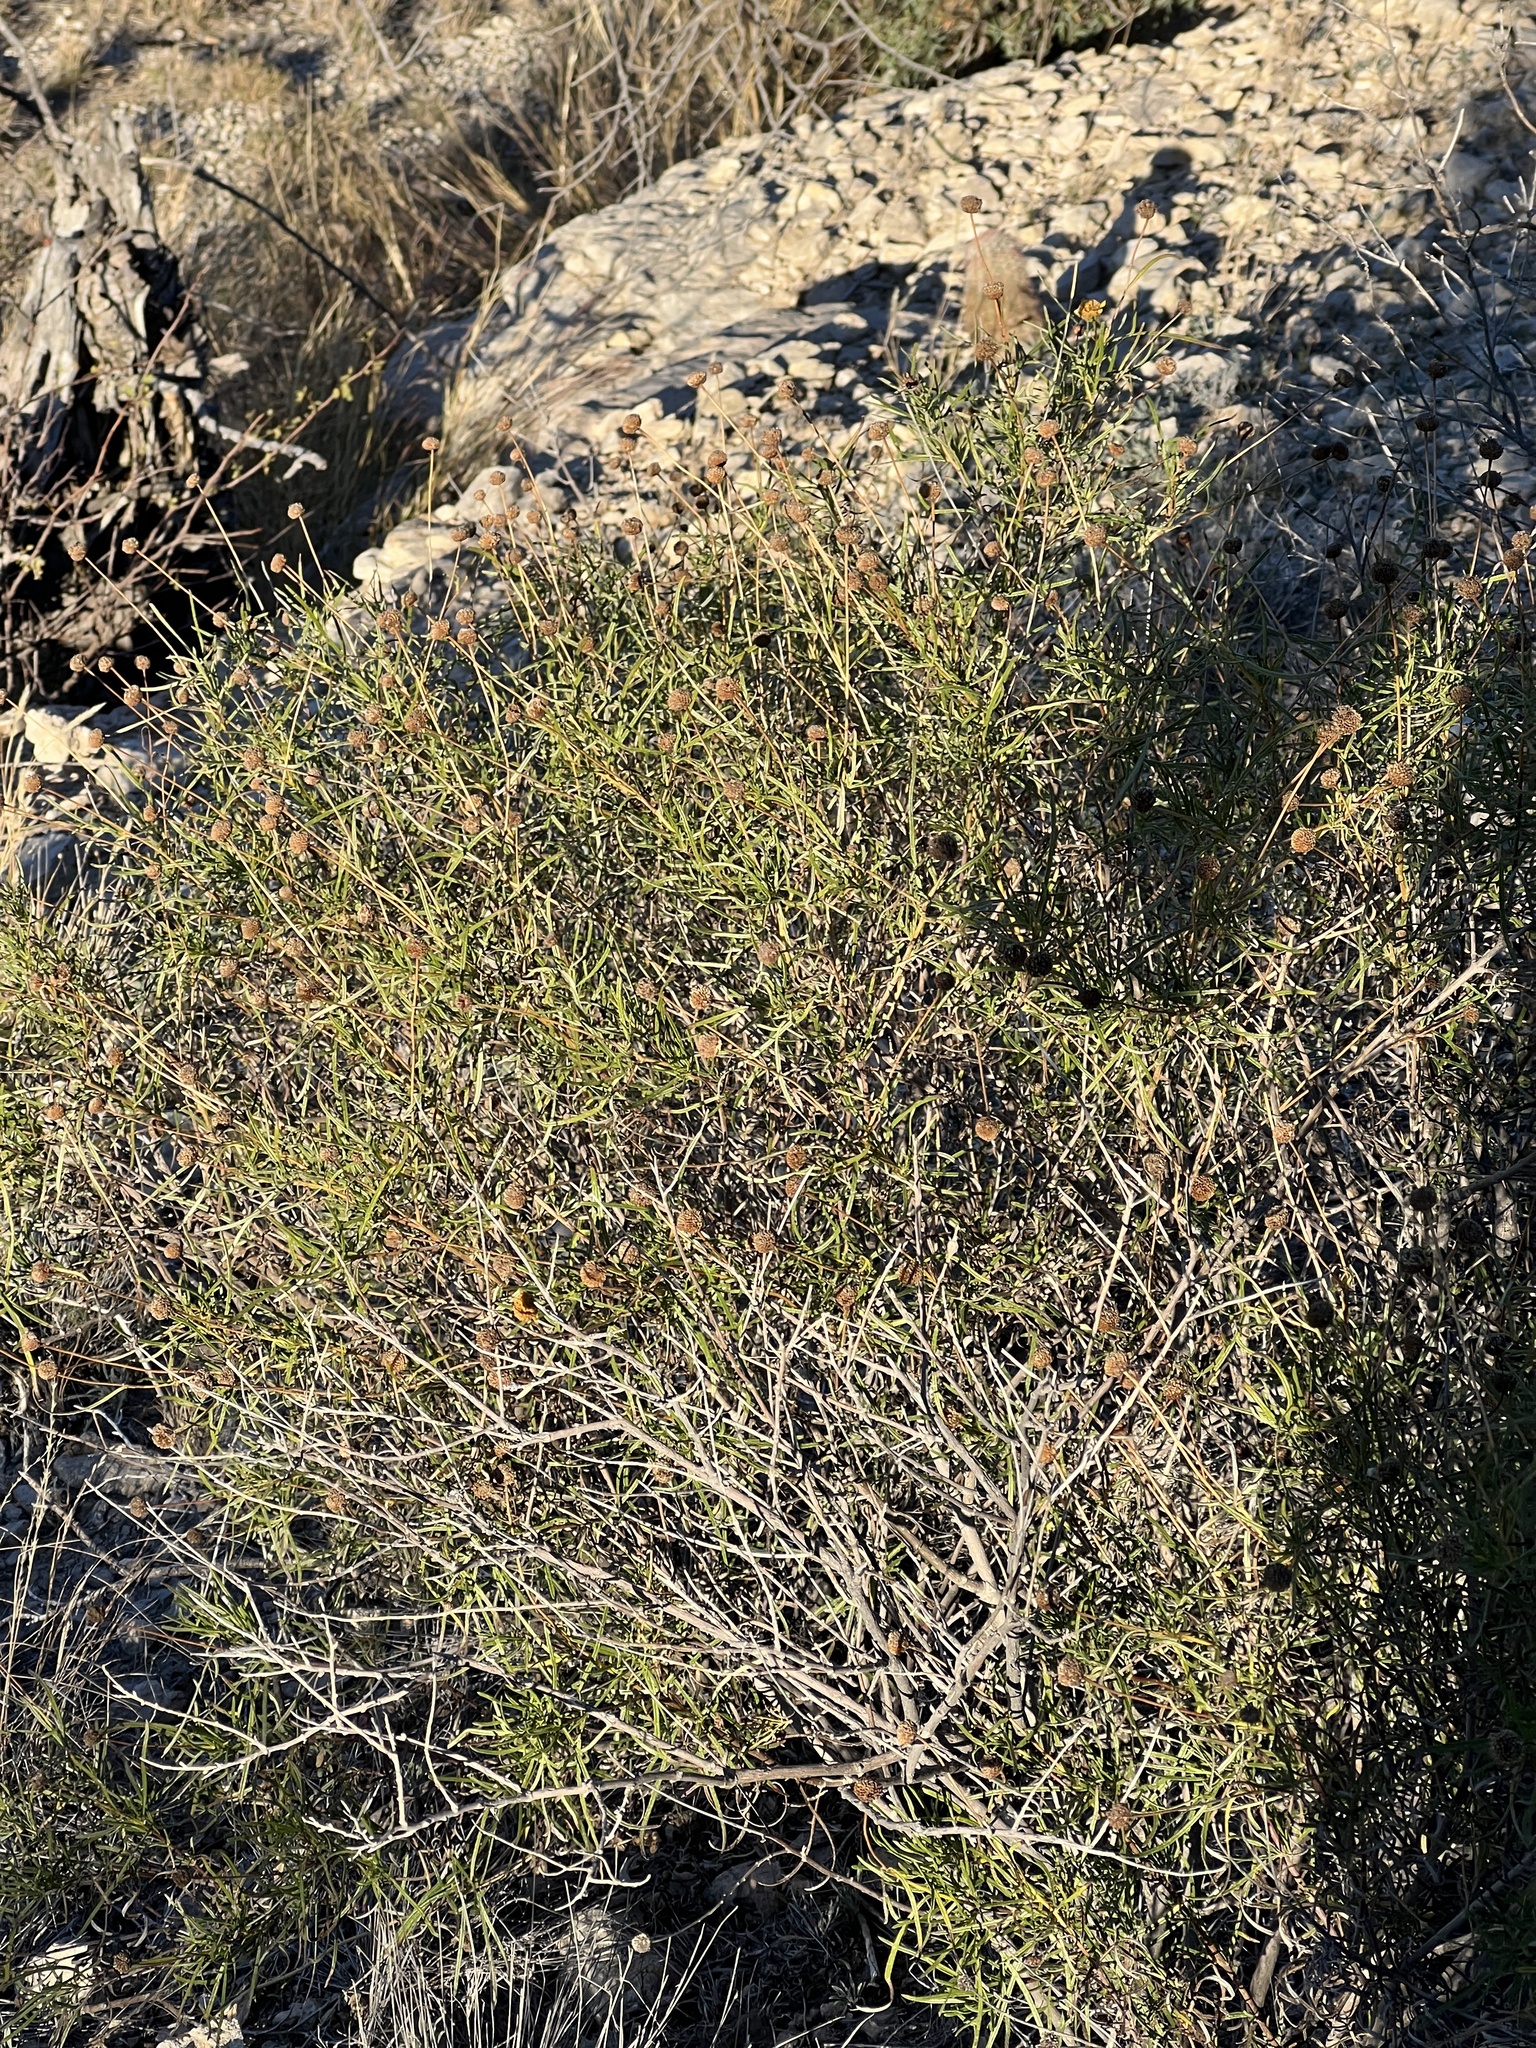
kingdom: Plantae
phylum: Tracheophyta
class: Magnoliopsida
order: Asterales
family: Asteraceae
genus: Sidneya
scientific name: Sidneya tenuifolia
